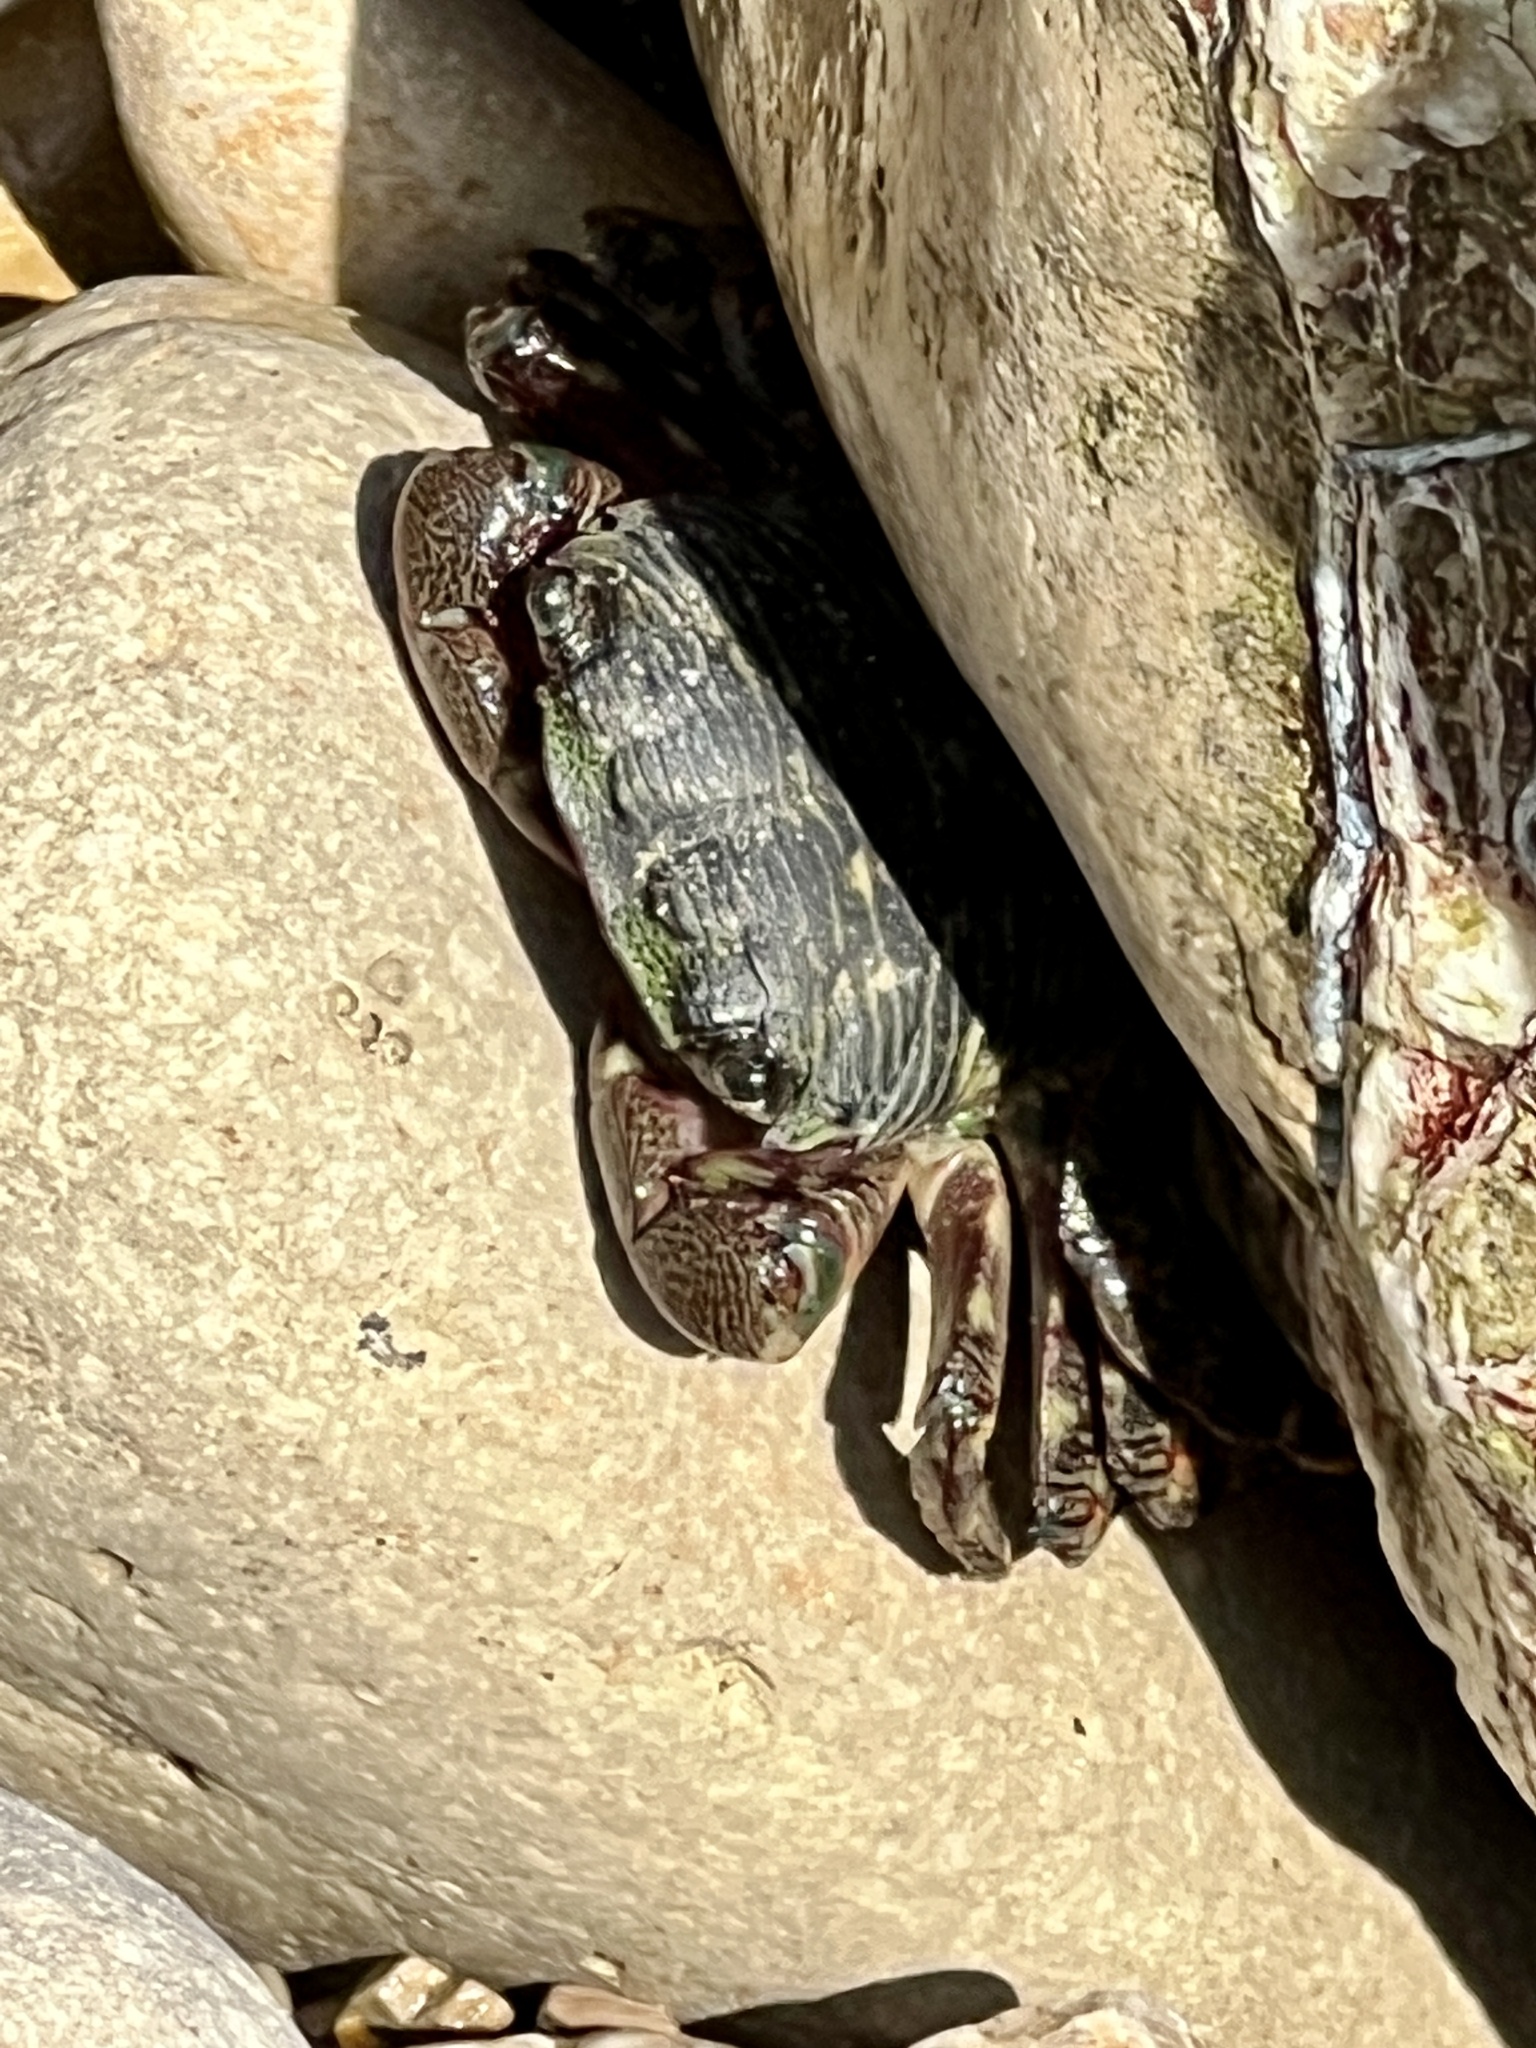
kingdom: Animalia
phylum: Arthropoda
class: Malacostraca
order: Decapoda
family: Grapsidae
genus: Pachygrapsus
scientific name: Pachygrapsus crassipes
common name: Striped shore crab
